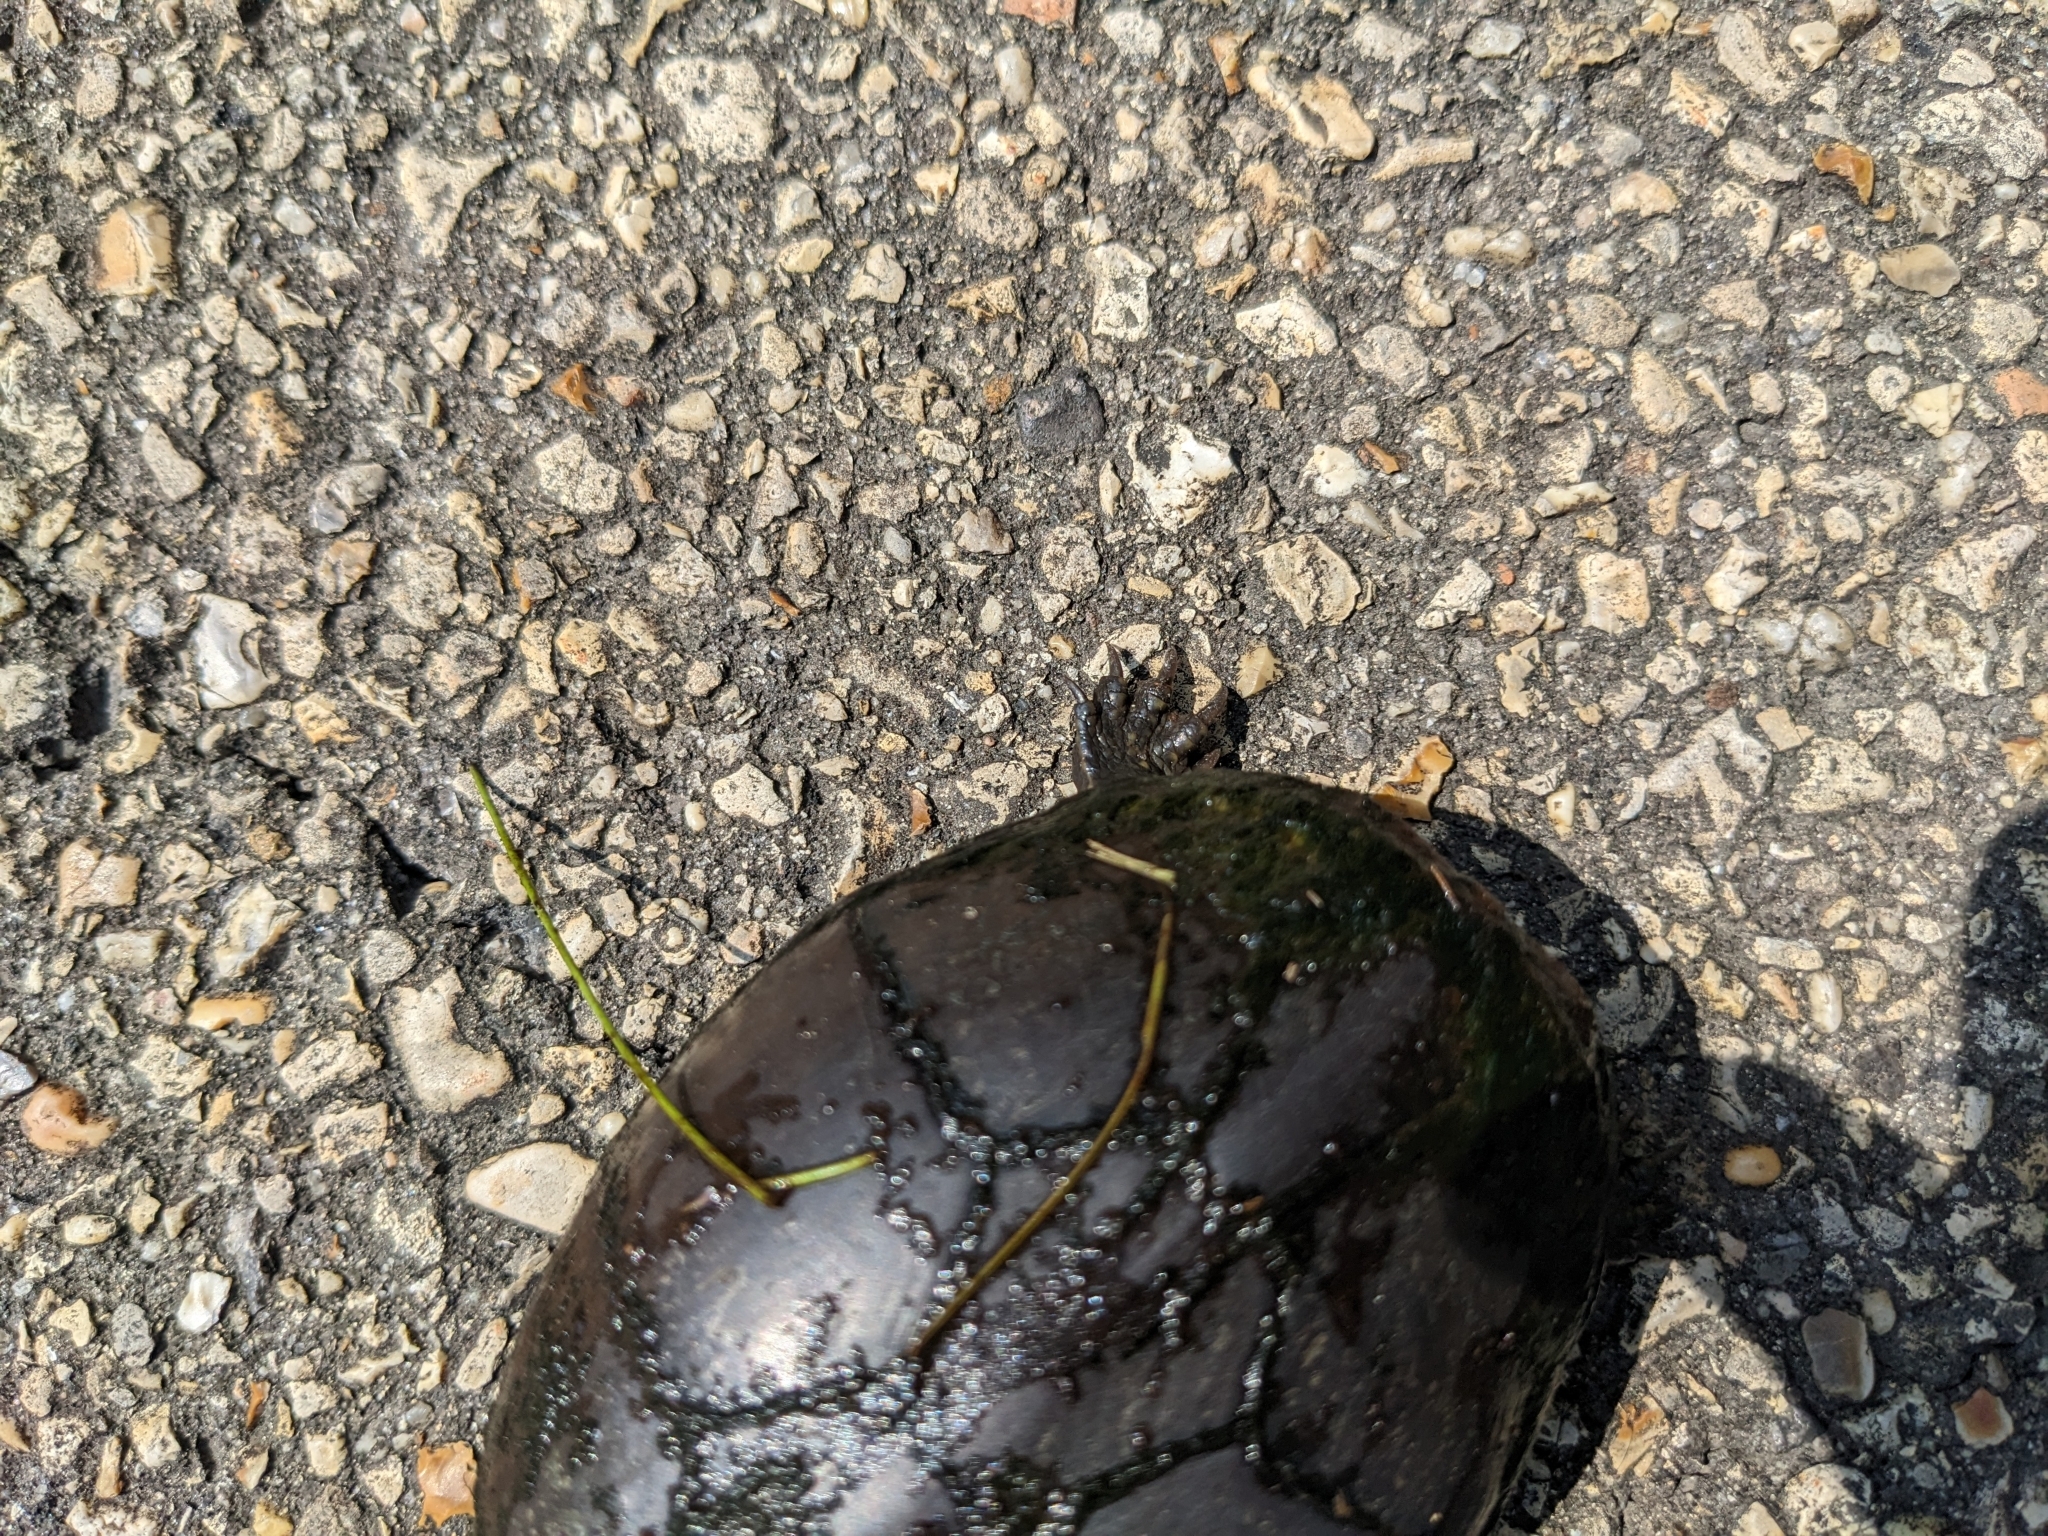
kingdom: Animalia
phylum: Chordata
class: Testudines
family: Kinosternidae
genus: Kinosternon
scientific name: Kinosternon subrubrum
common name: Eastern mud turtle
